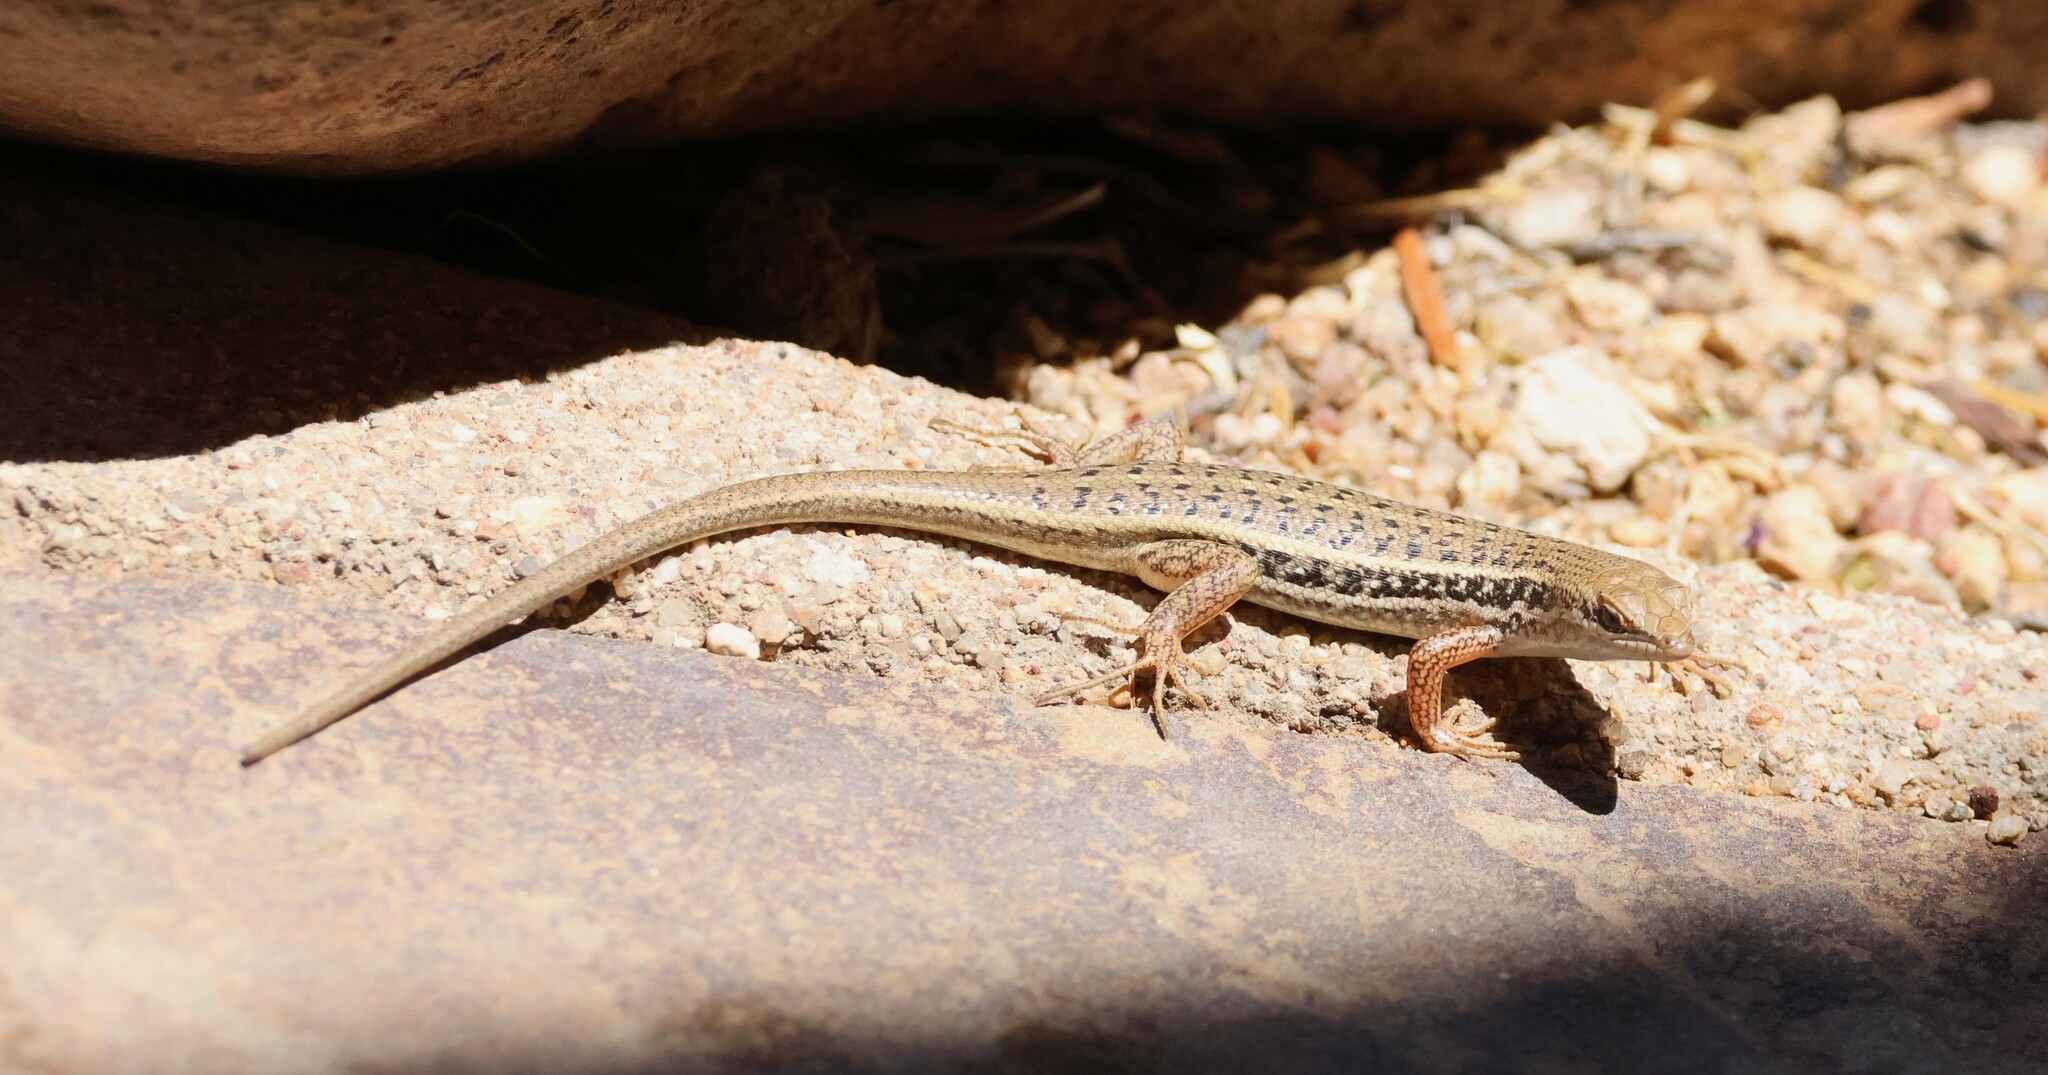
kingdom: Animalia
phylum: Chordata
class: Squamata
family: Scincidae
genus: Trachylepis
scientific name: Trachylepis variegata
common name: Variegated skink
